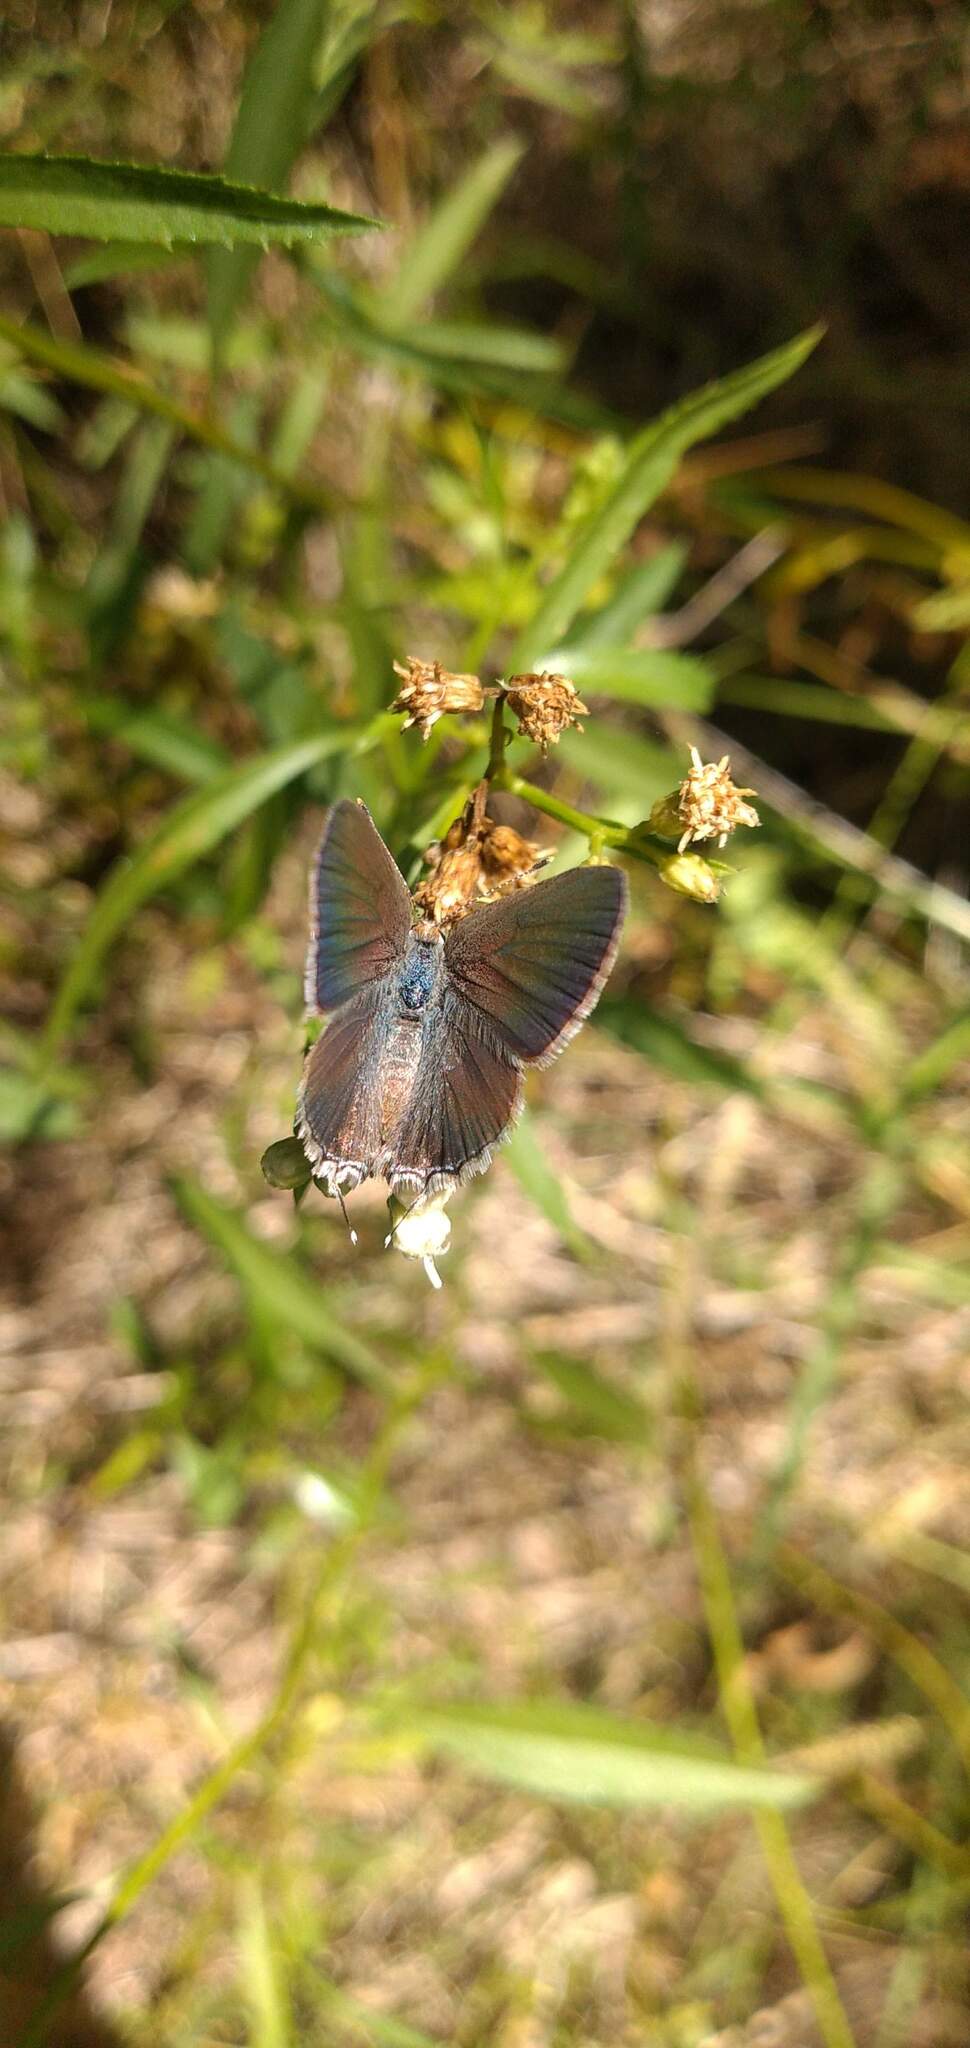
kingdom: Animalia
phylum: Arthropoda
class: Insecta
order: Lepidoptera
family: Lycaenidae
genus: Strymon
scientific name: Strymon eurytulus
